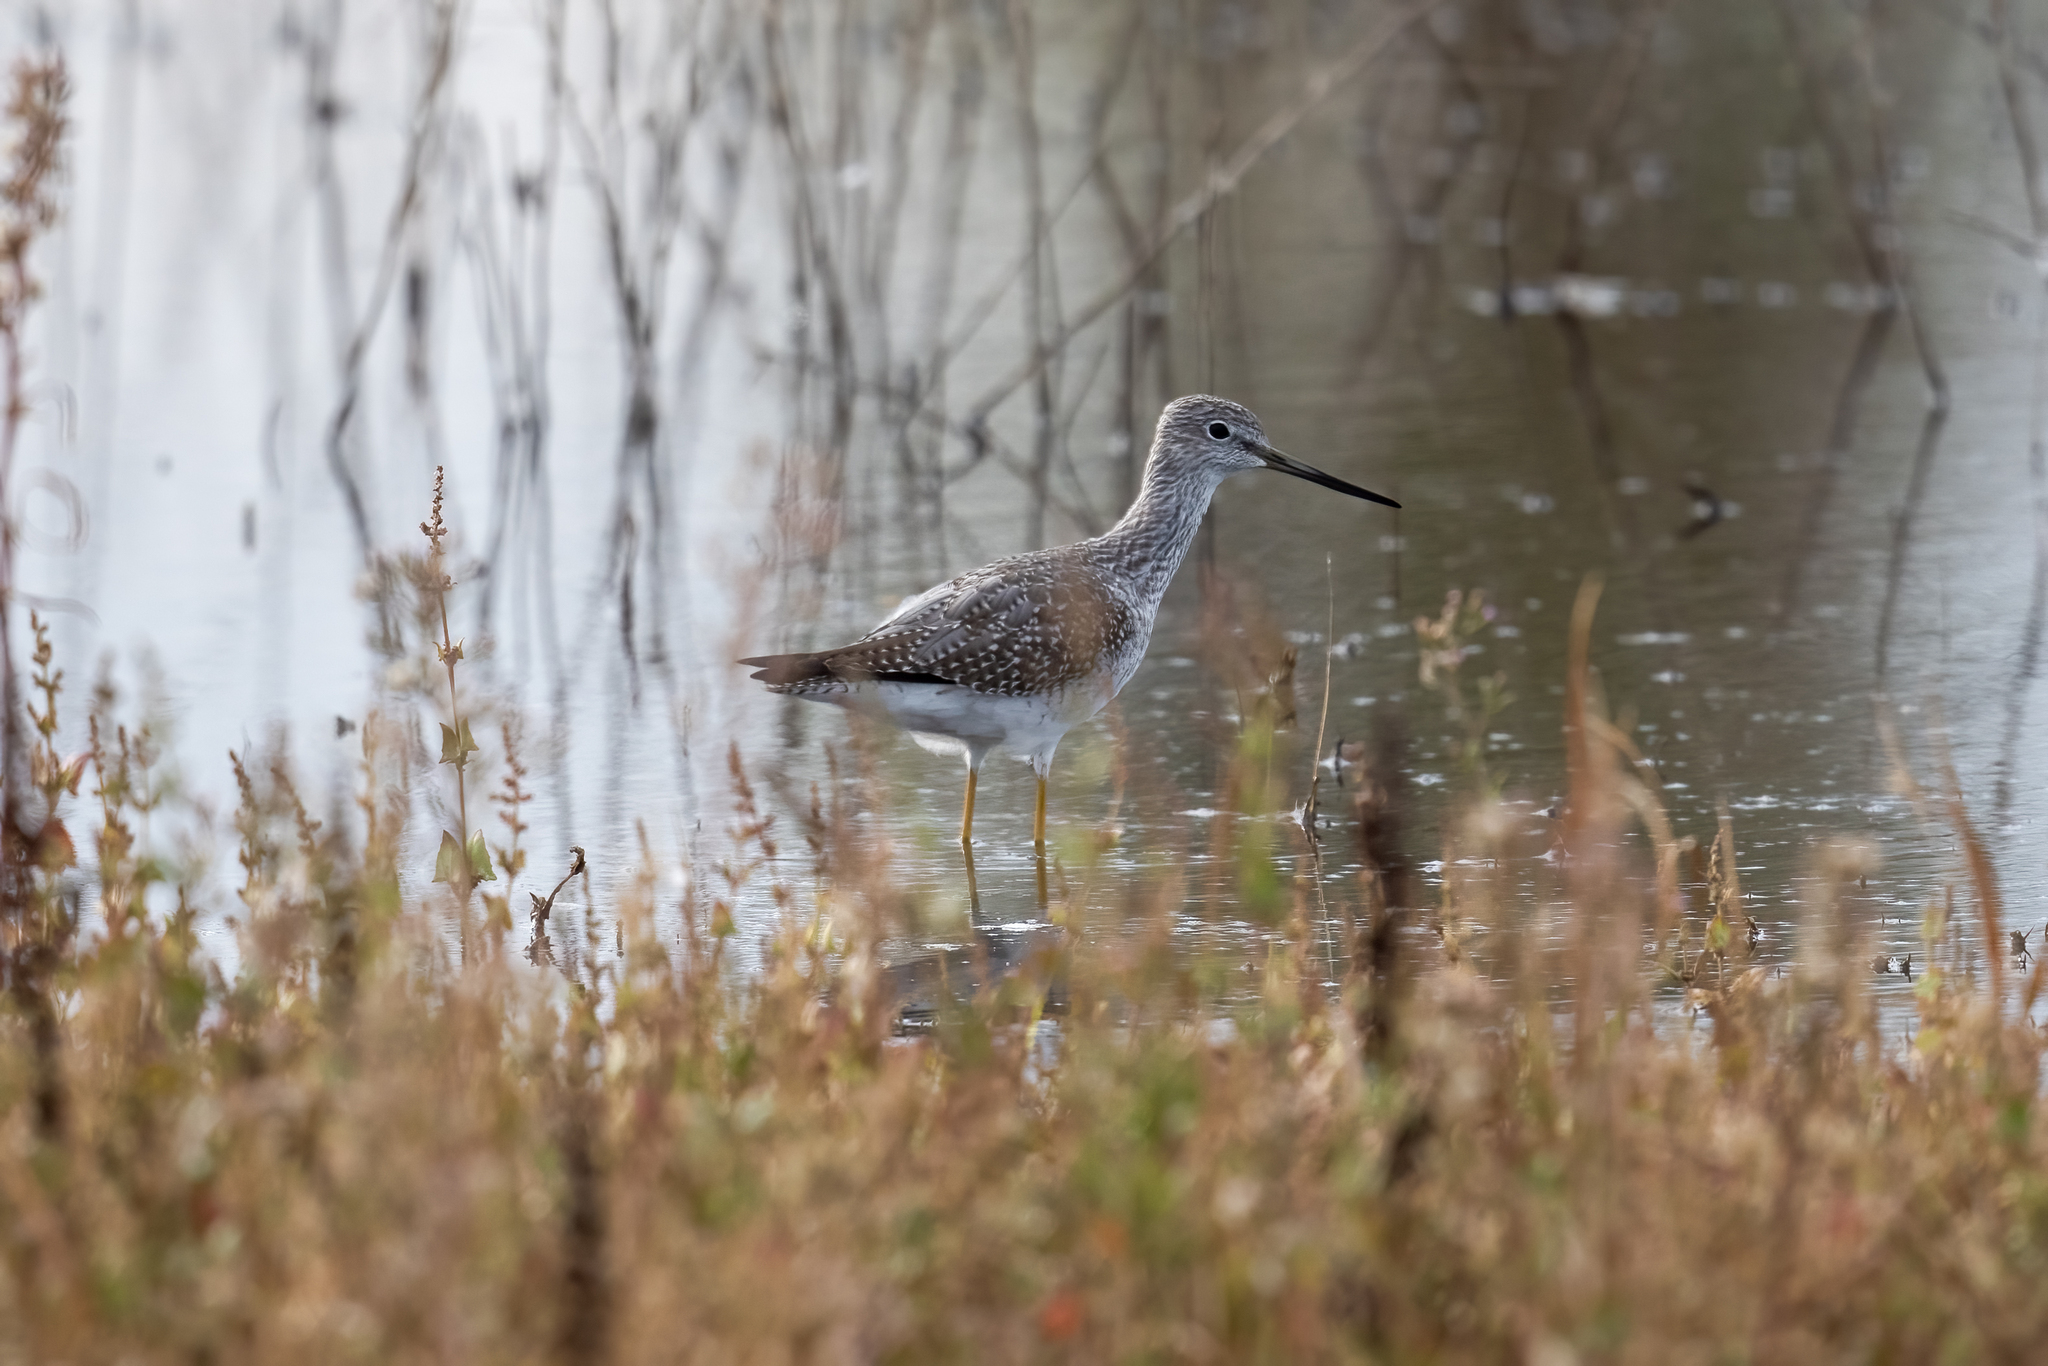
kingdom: Animalia
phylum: Chordata
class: Aves
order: Charadriiformes
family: Scolopacidae
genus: Tringa
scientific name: Tringa melanoleuca
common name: Greater yellowlegs
